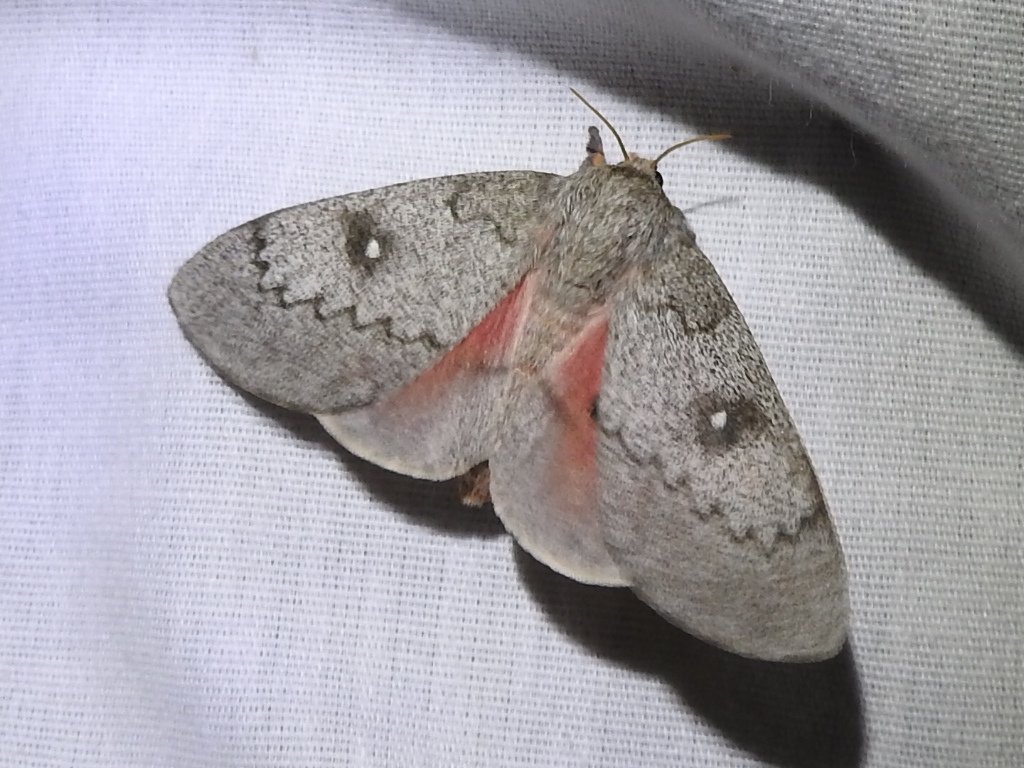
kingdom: Animalia
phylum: Arthropoda
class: Insecta
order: Lepidoptera
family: Saturniidae
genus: Syssphinx
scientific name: Syssphinx heiligbrodti
